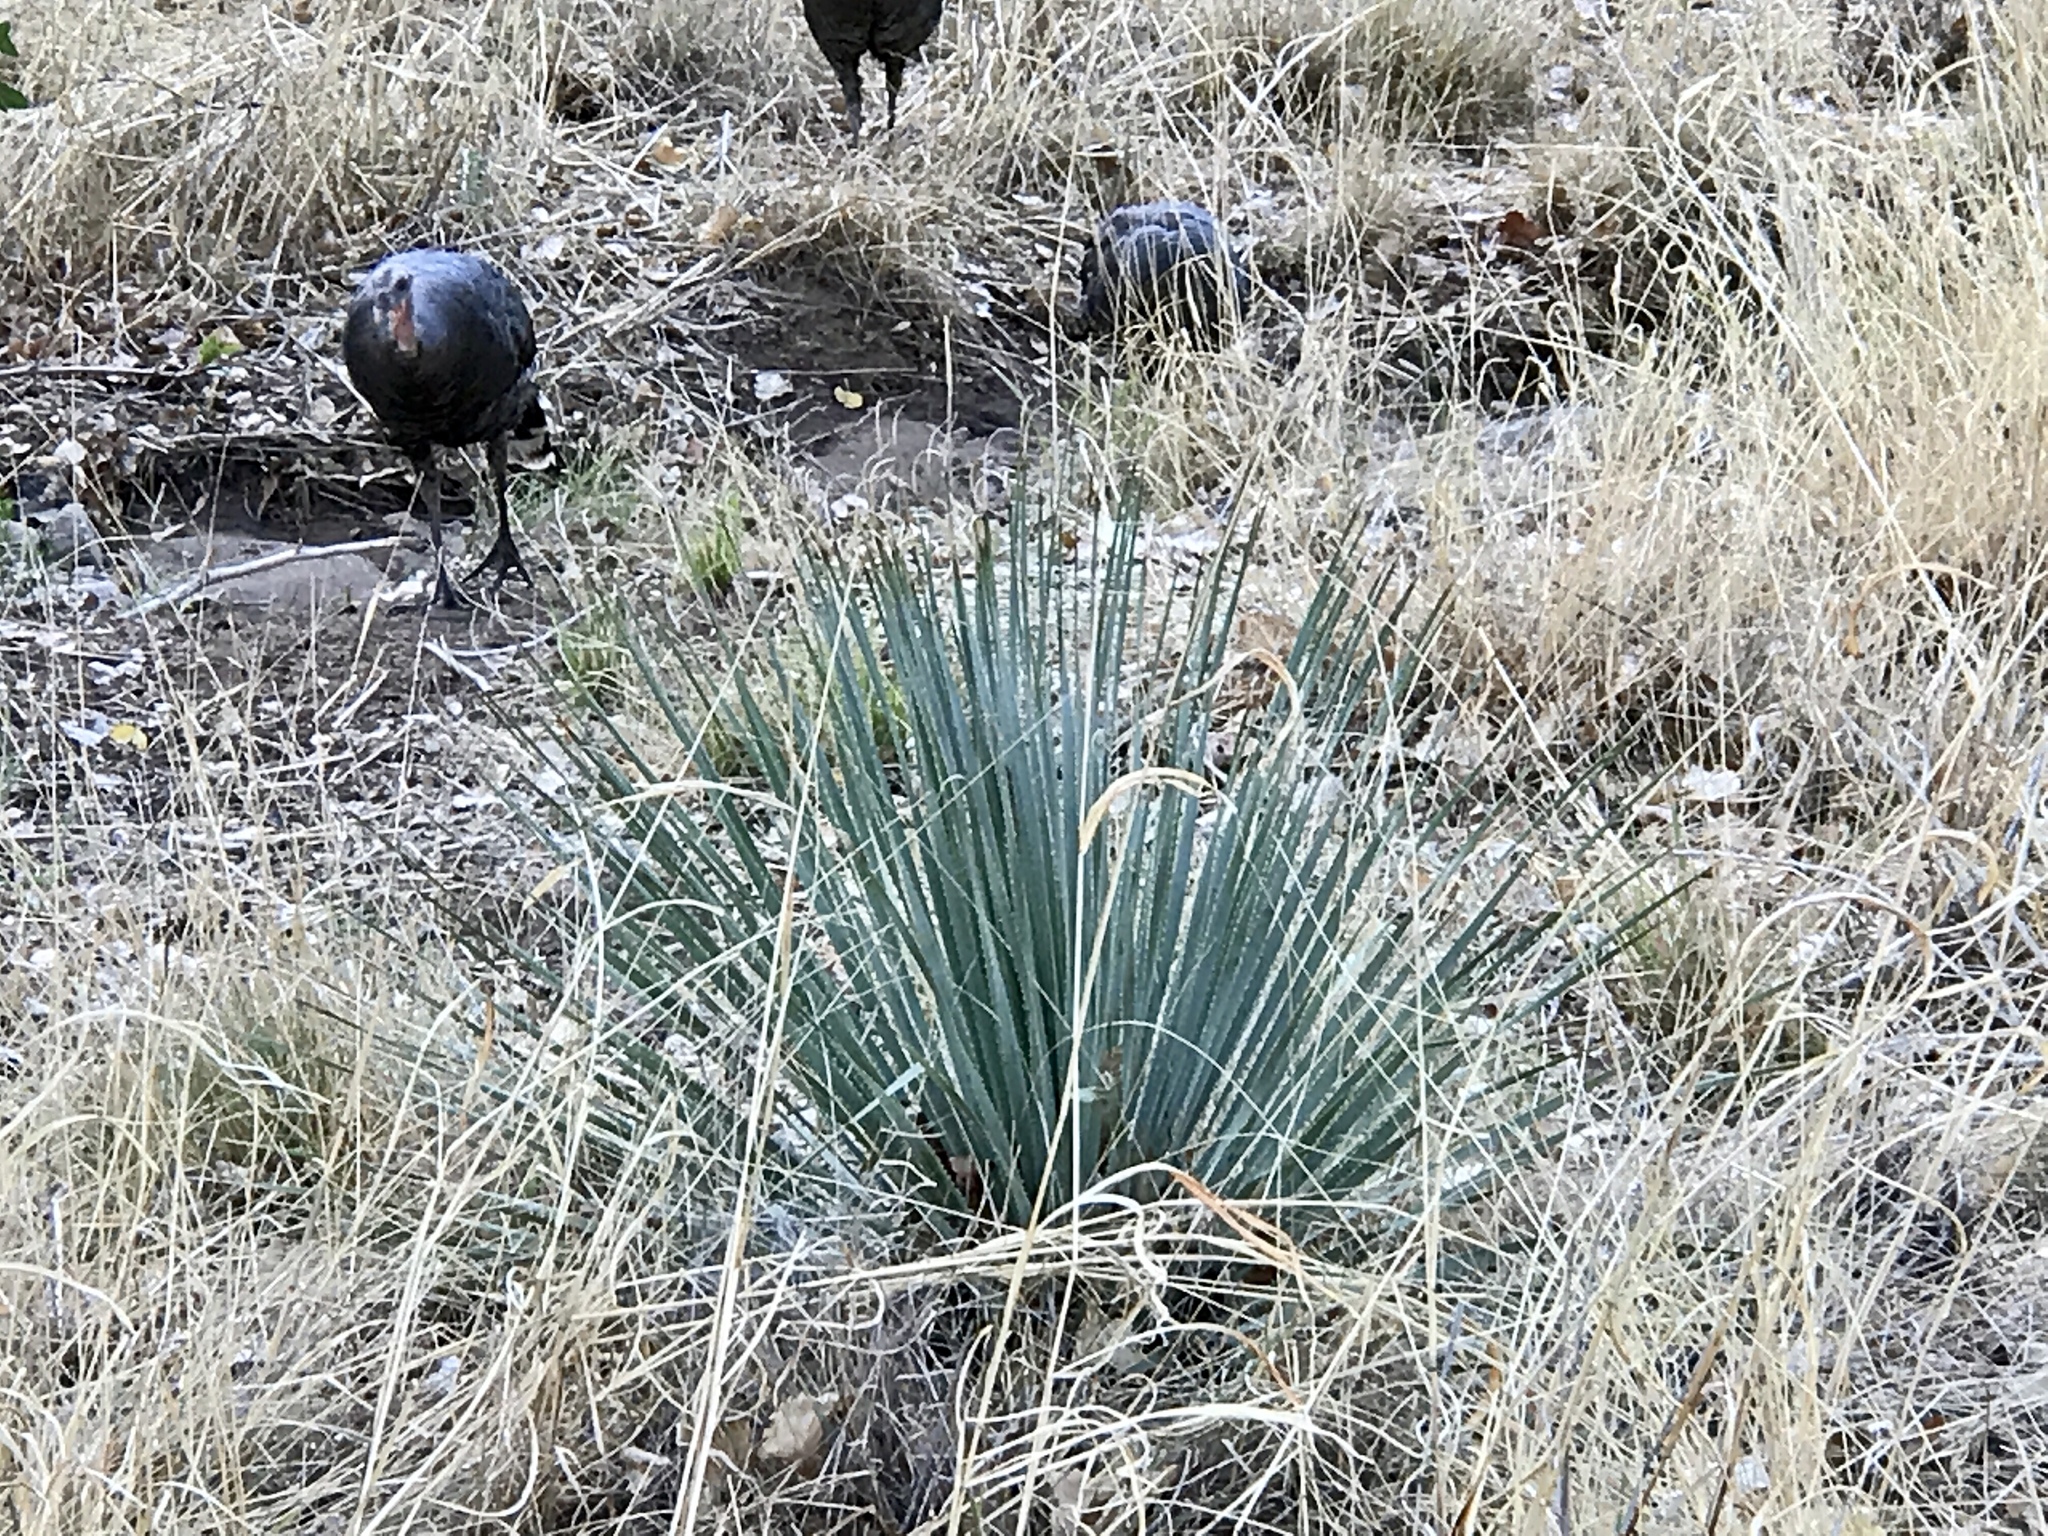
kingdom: Plantae
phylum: Tracheophyta
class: Liliopsida
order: Asparagales
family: Asparagaceae
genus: Dasylirion
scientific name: Dasylirion wheeleri
